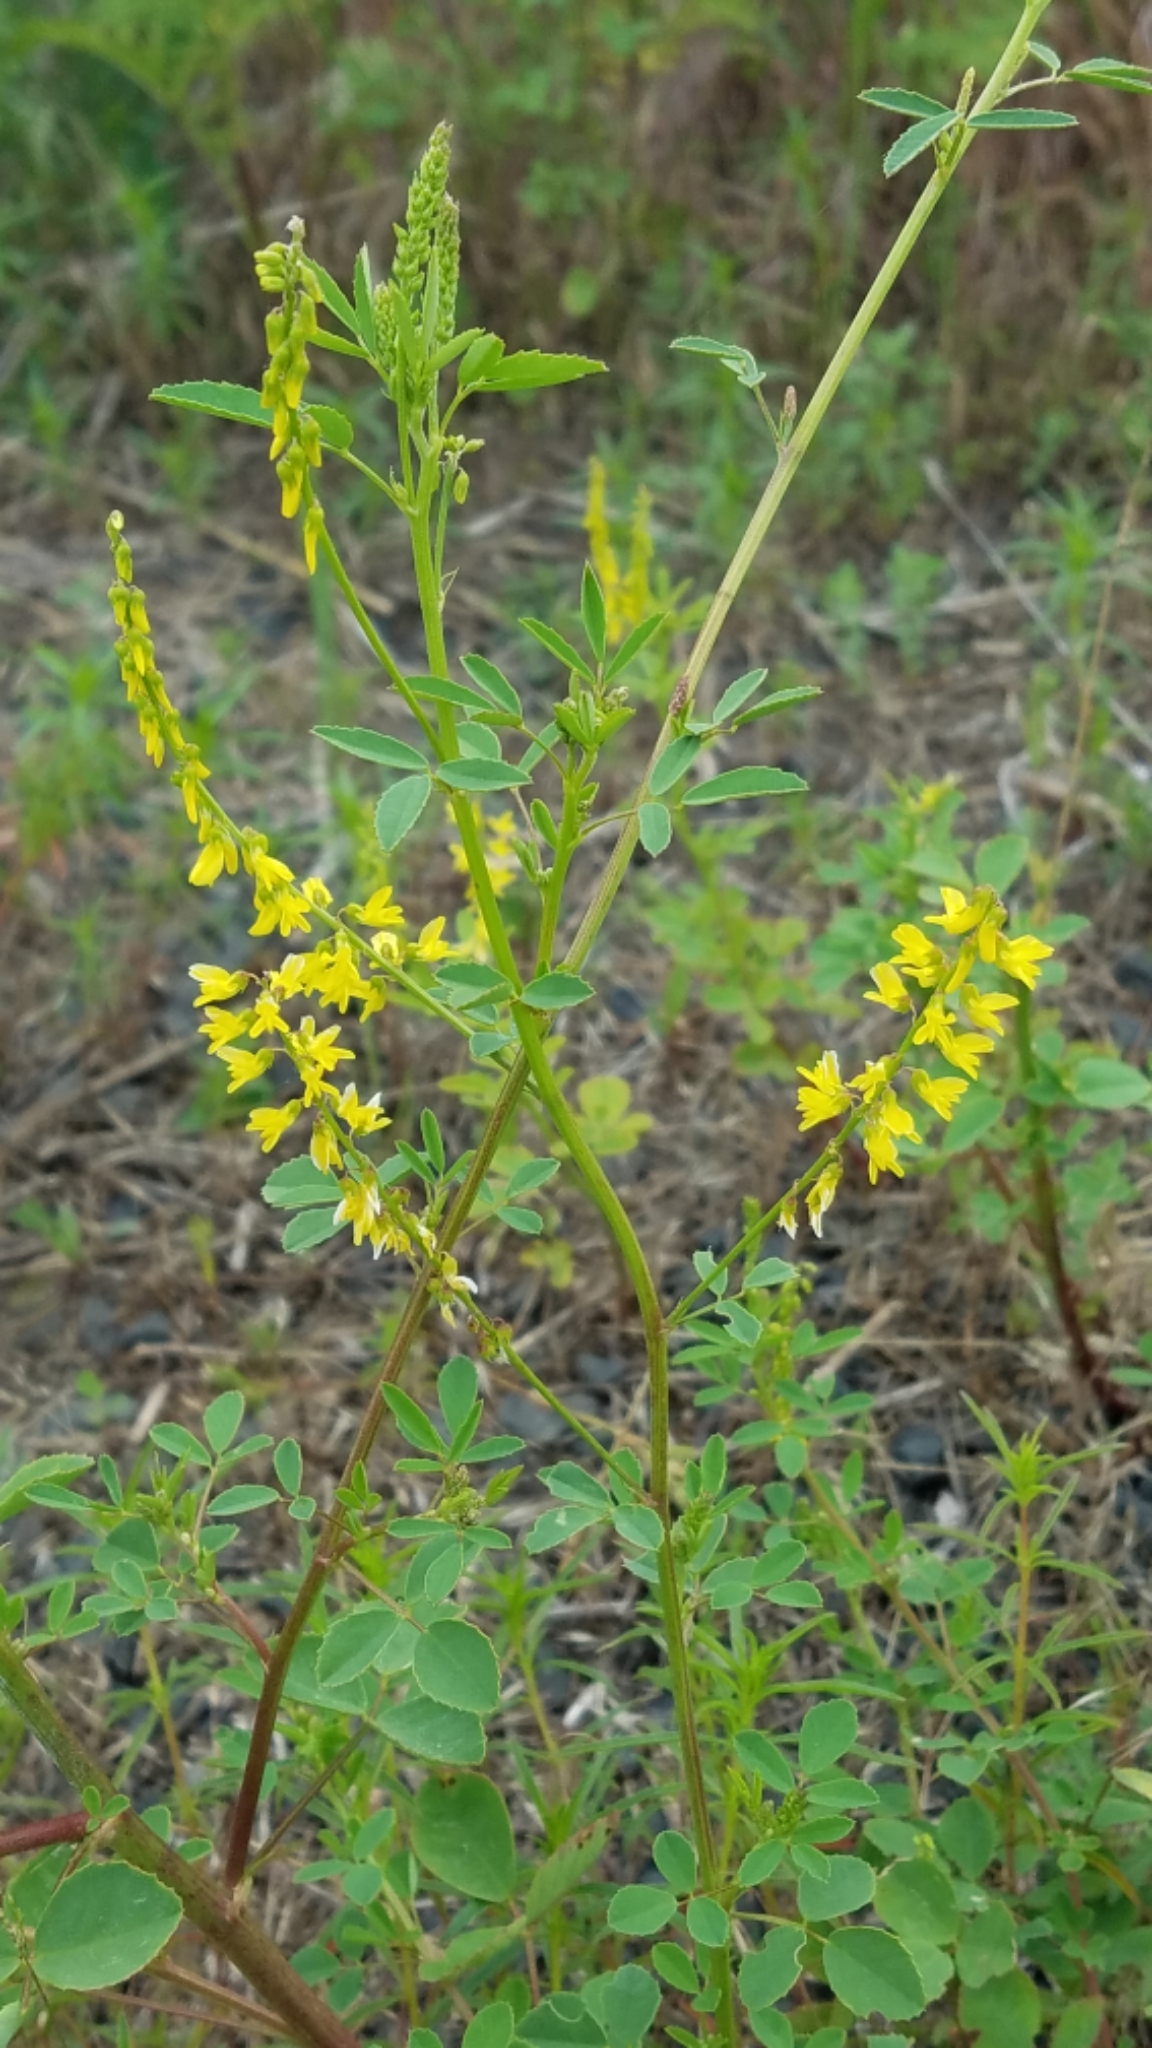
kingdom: Plantae
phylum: Tracheophyta
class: Magnoliopsida
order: Fabales
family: Fabaceae
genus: Melilotus
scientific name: Melilotus officinalis
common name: Sweetclover
